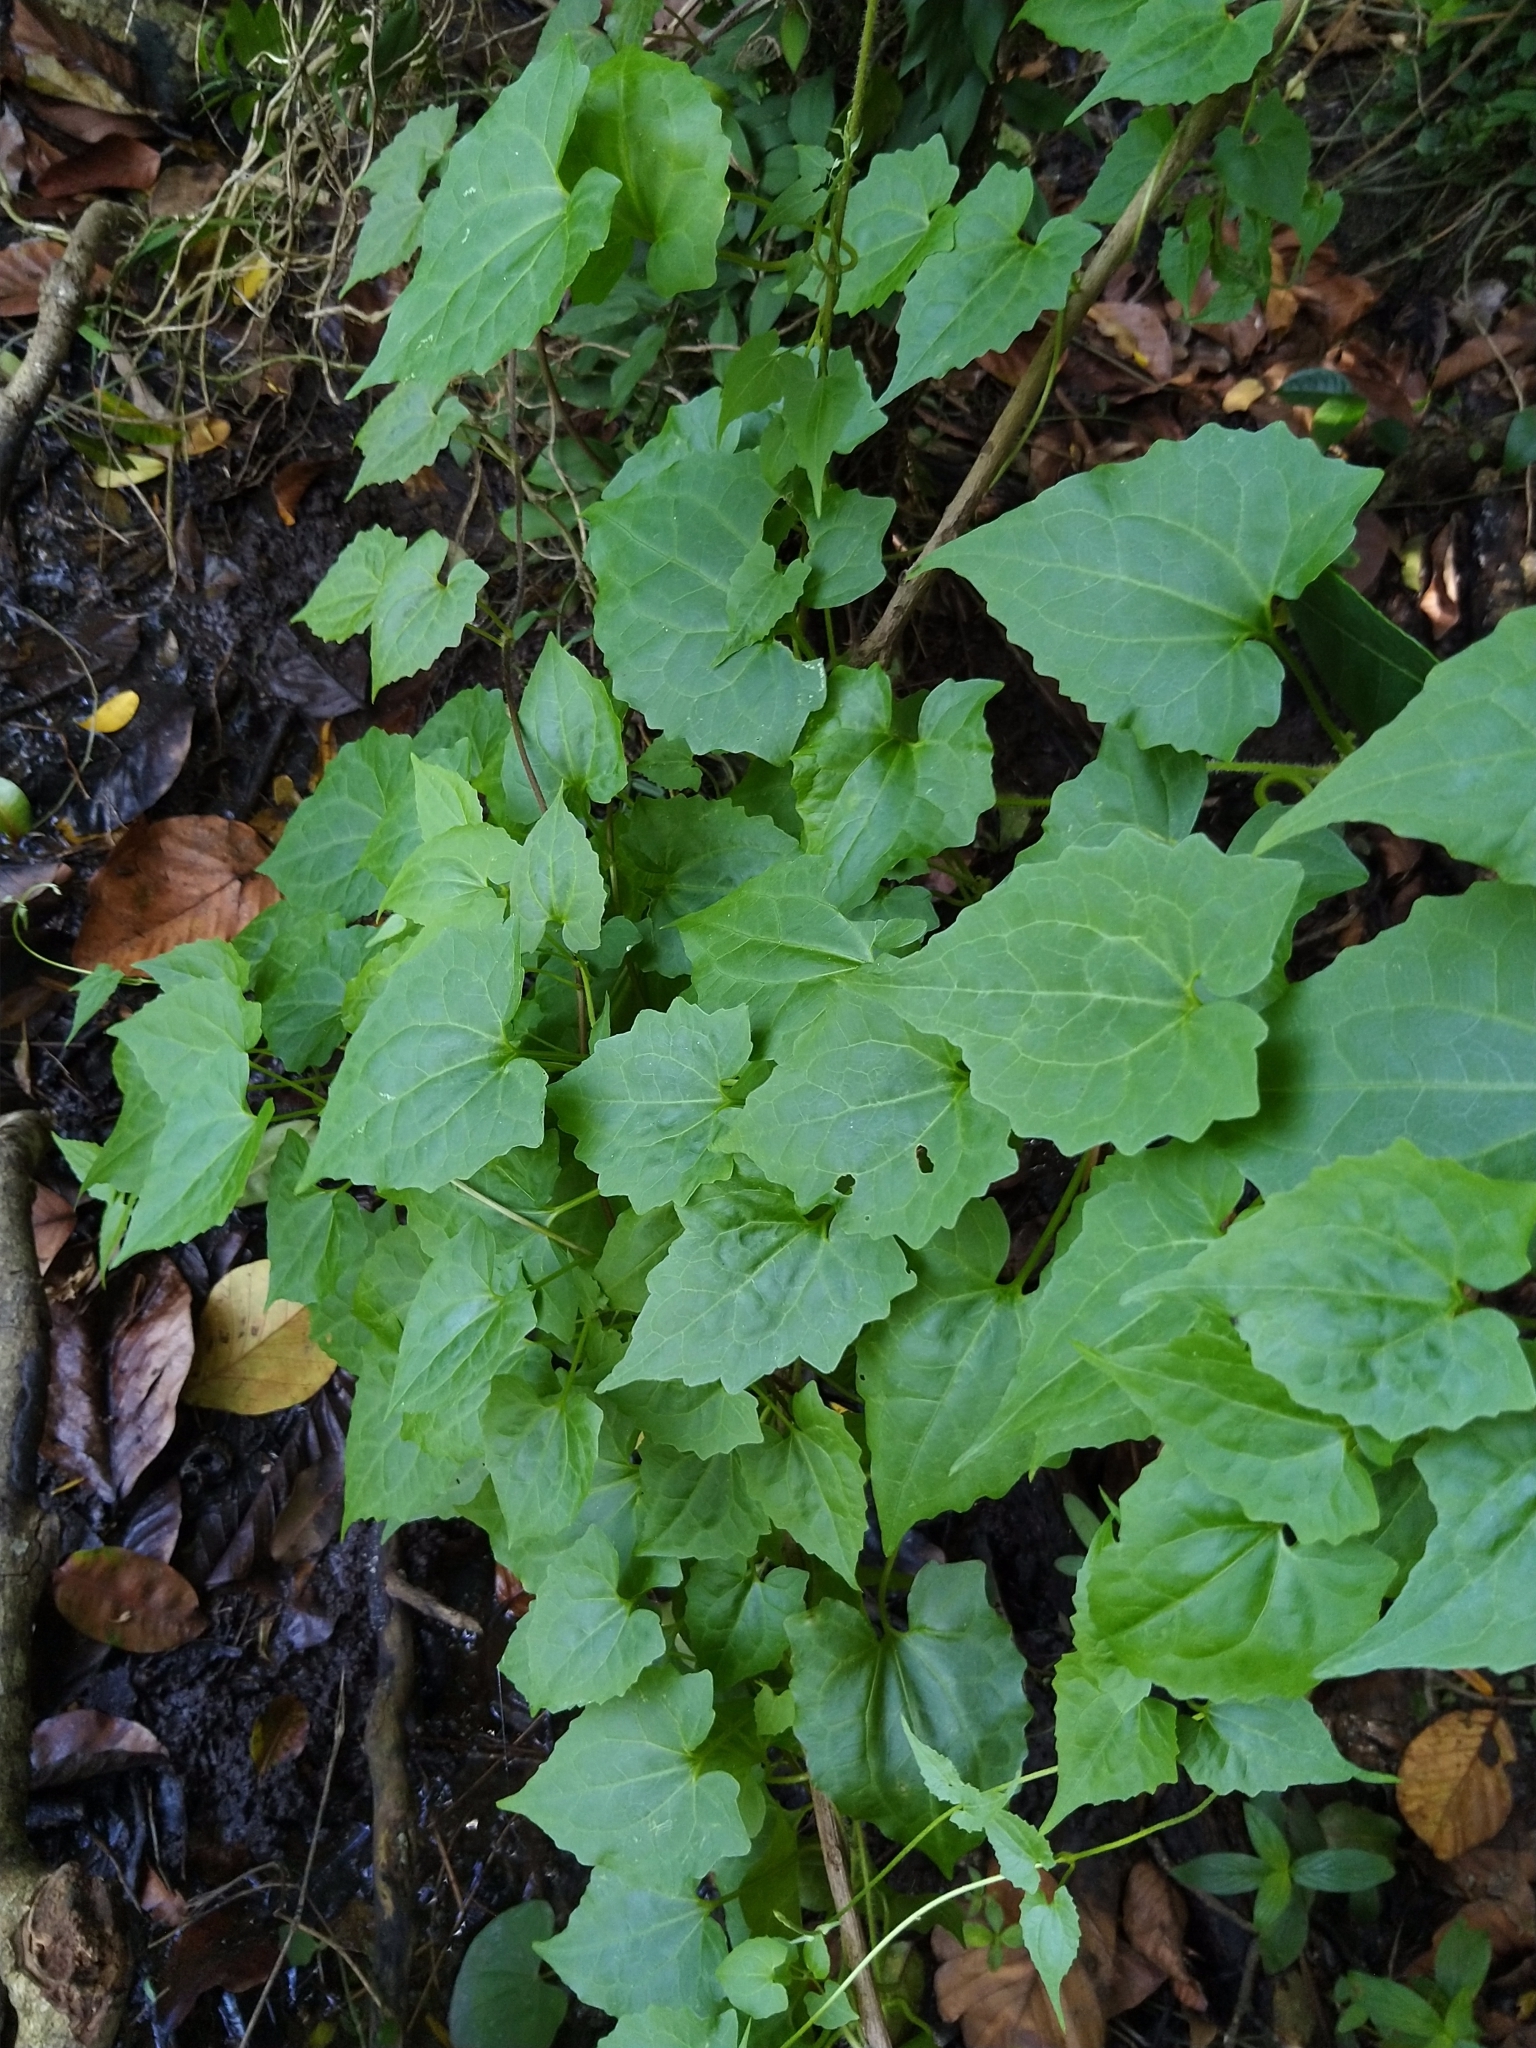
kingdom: Plantae
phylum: Tracheophyta
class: Magnoliopsida
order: Asterales
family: Asteraceae
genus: Mikania
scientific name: Mikania micrantha
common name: Mile-a-minute
